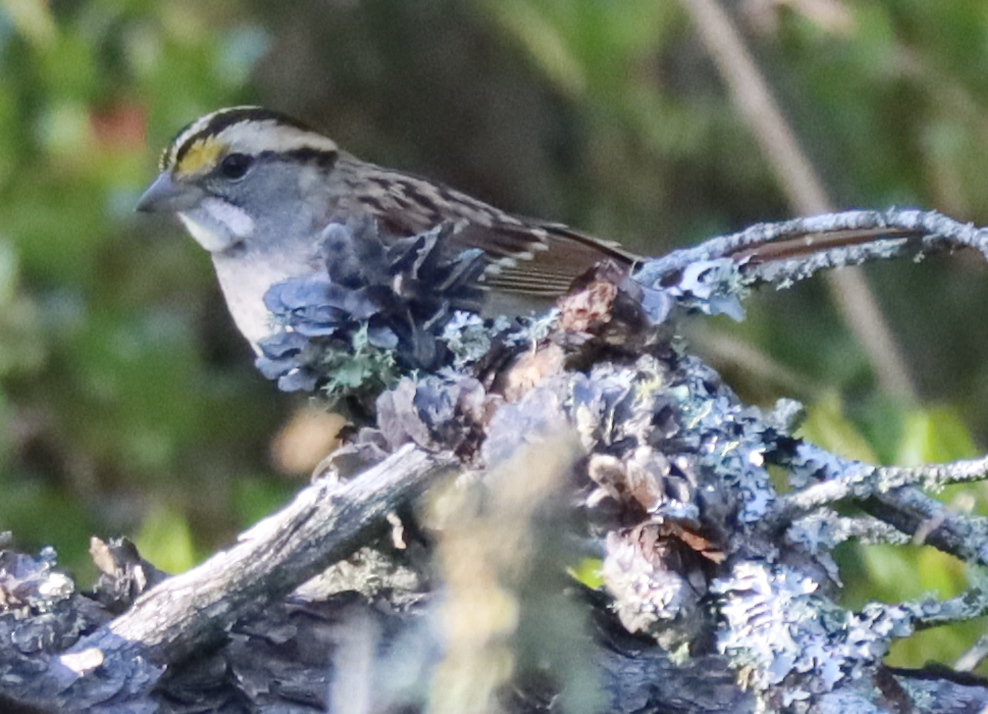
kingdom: Animalia
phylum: Chordata
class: Aves
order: Passeriformes
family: Passerellidae
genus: Zonotrichia
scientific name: Zonotrichia albicollis
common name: White-throated sparrow
